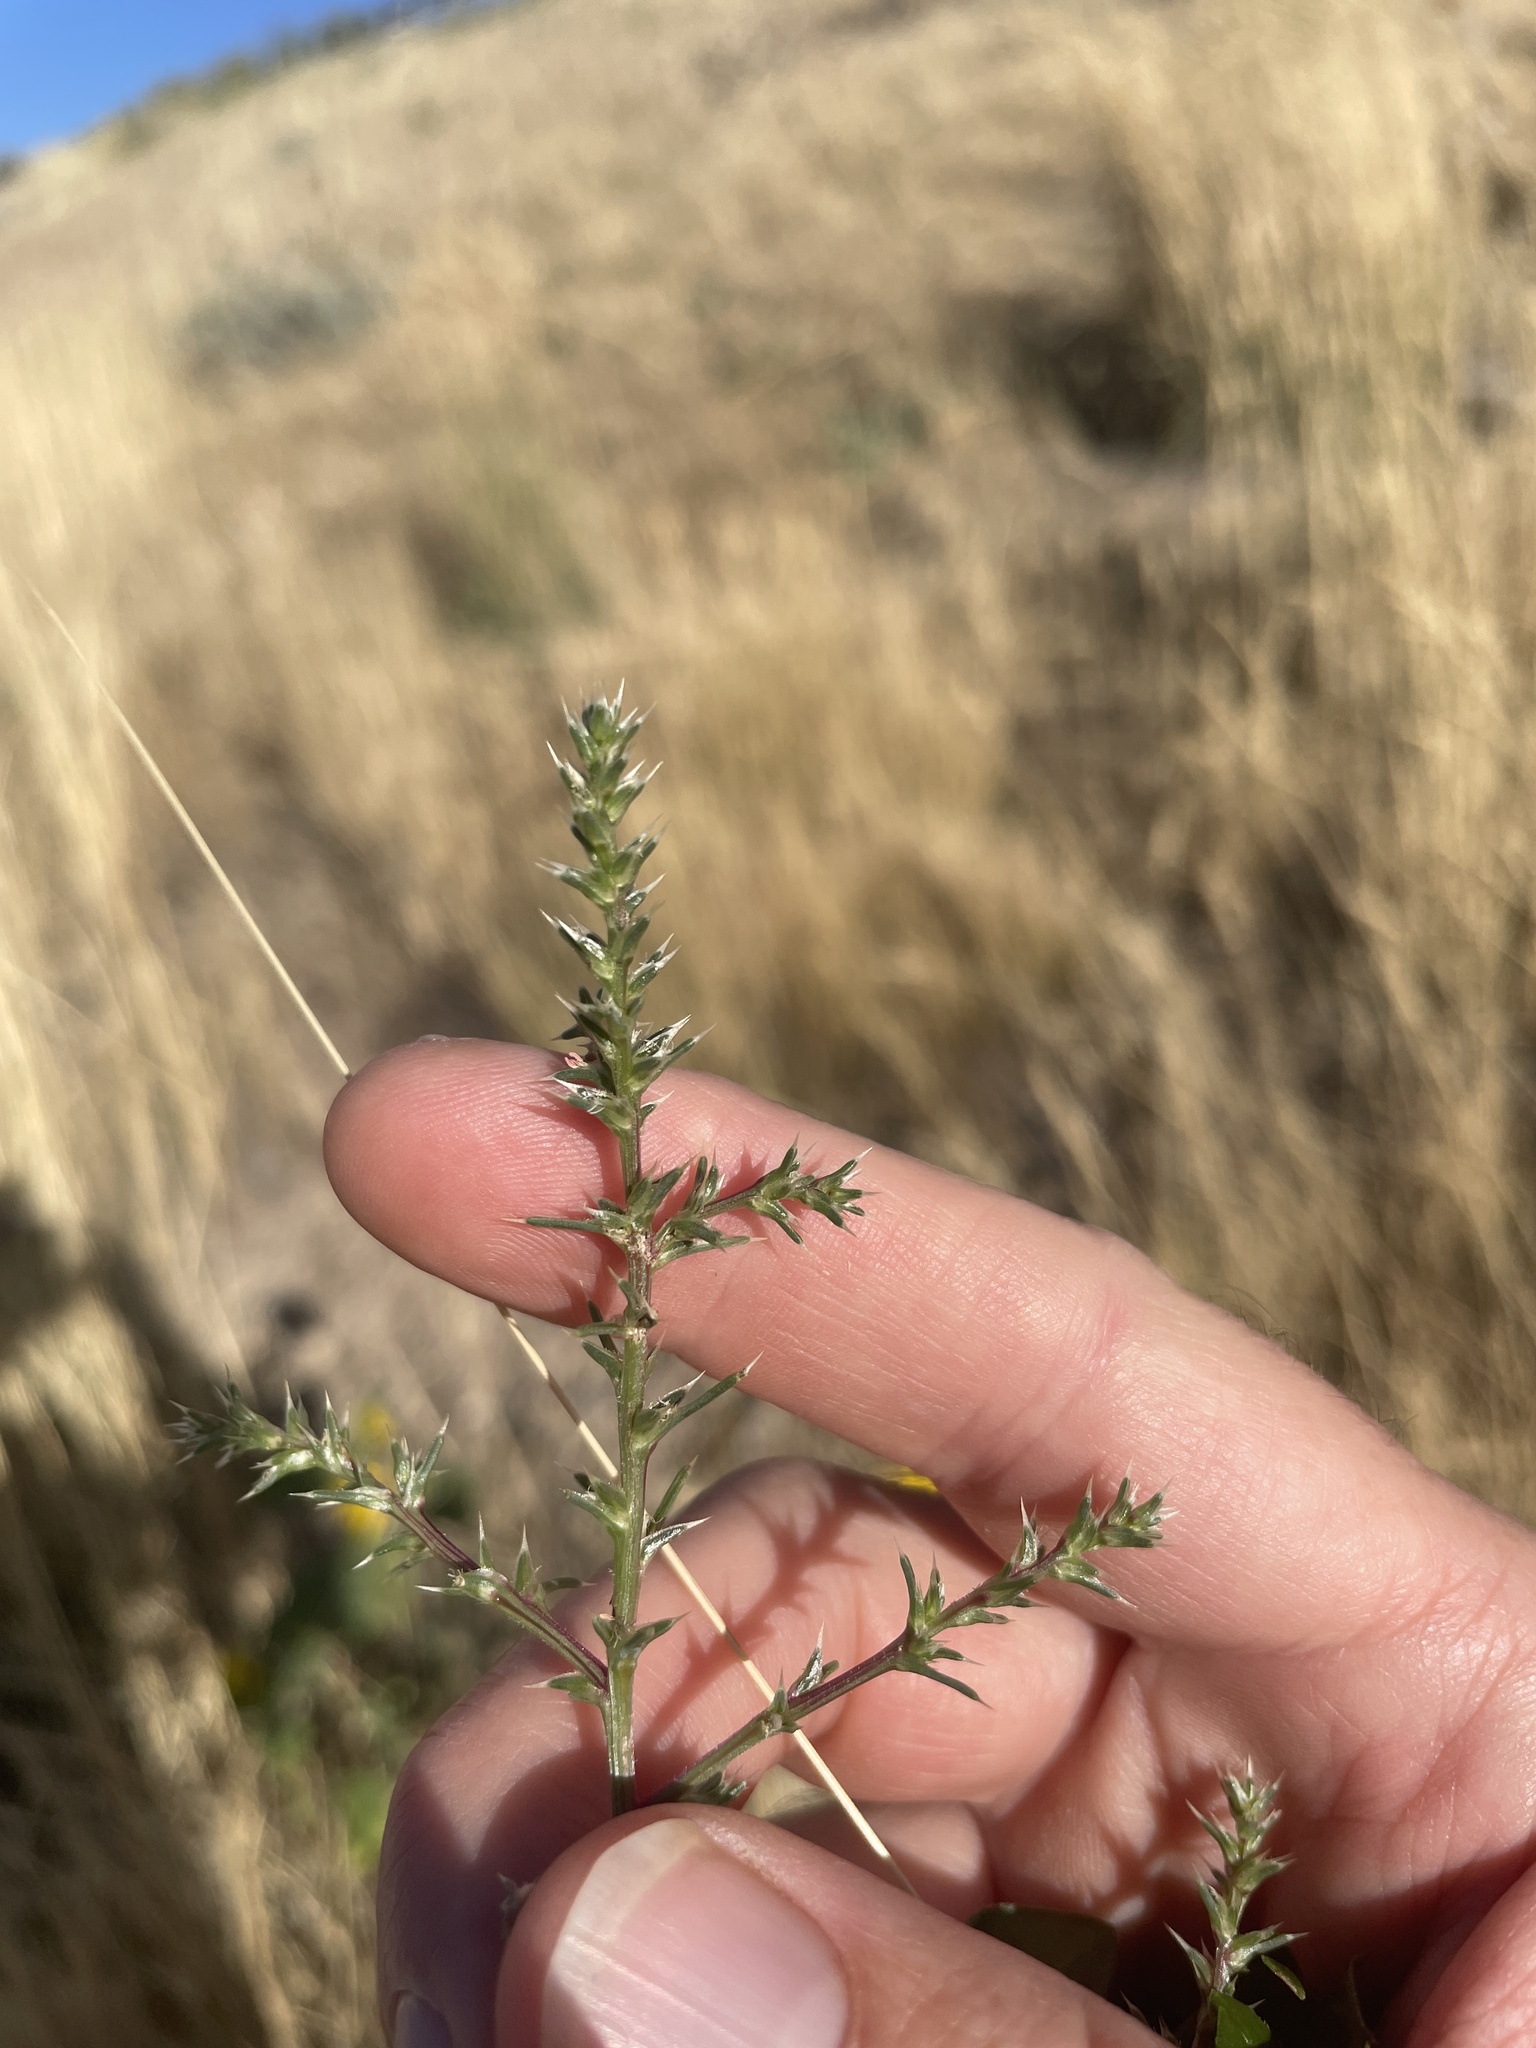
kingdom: Plantae
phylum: Tracheophyta
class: Magnoliopsida
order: Caryophyllales
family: Amaranthaceae
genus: Salsola
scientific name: Salsola tragus
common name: Prickly russian thistle
